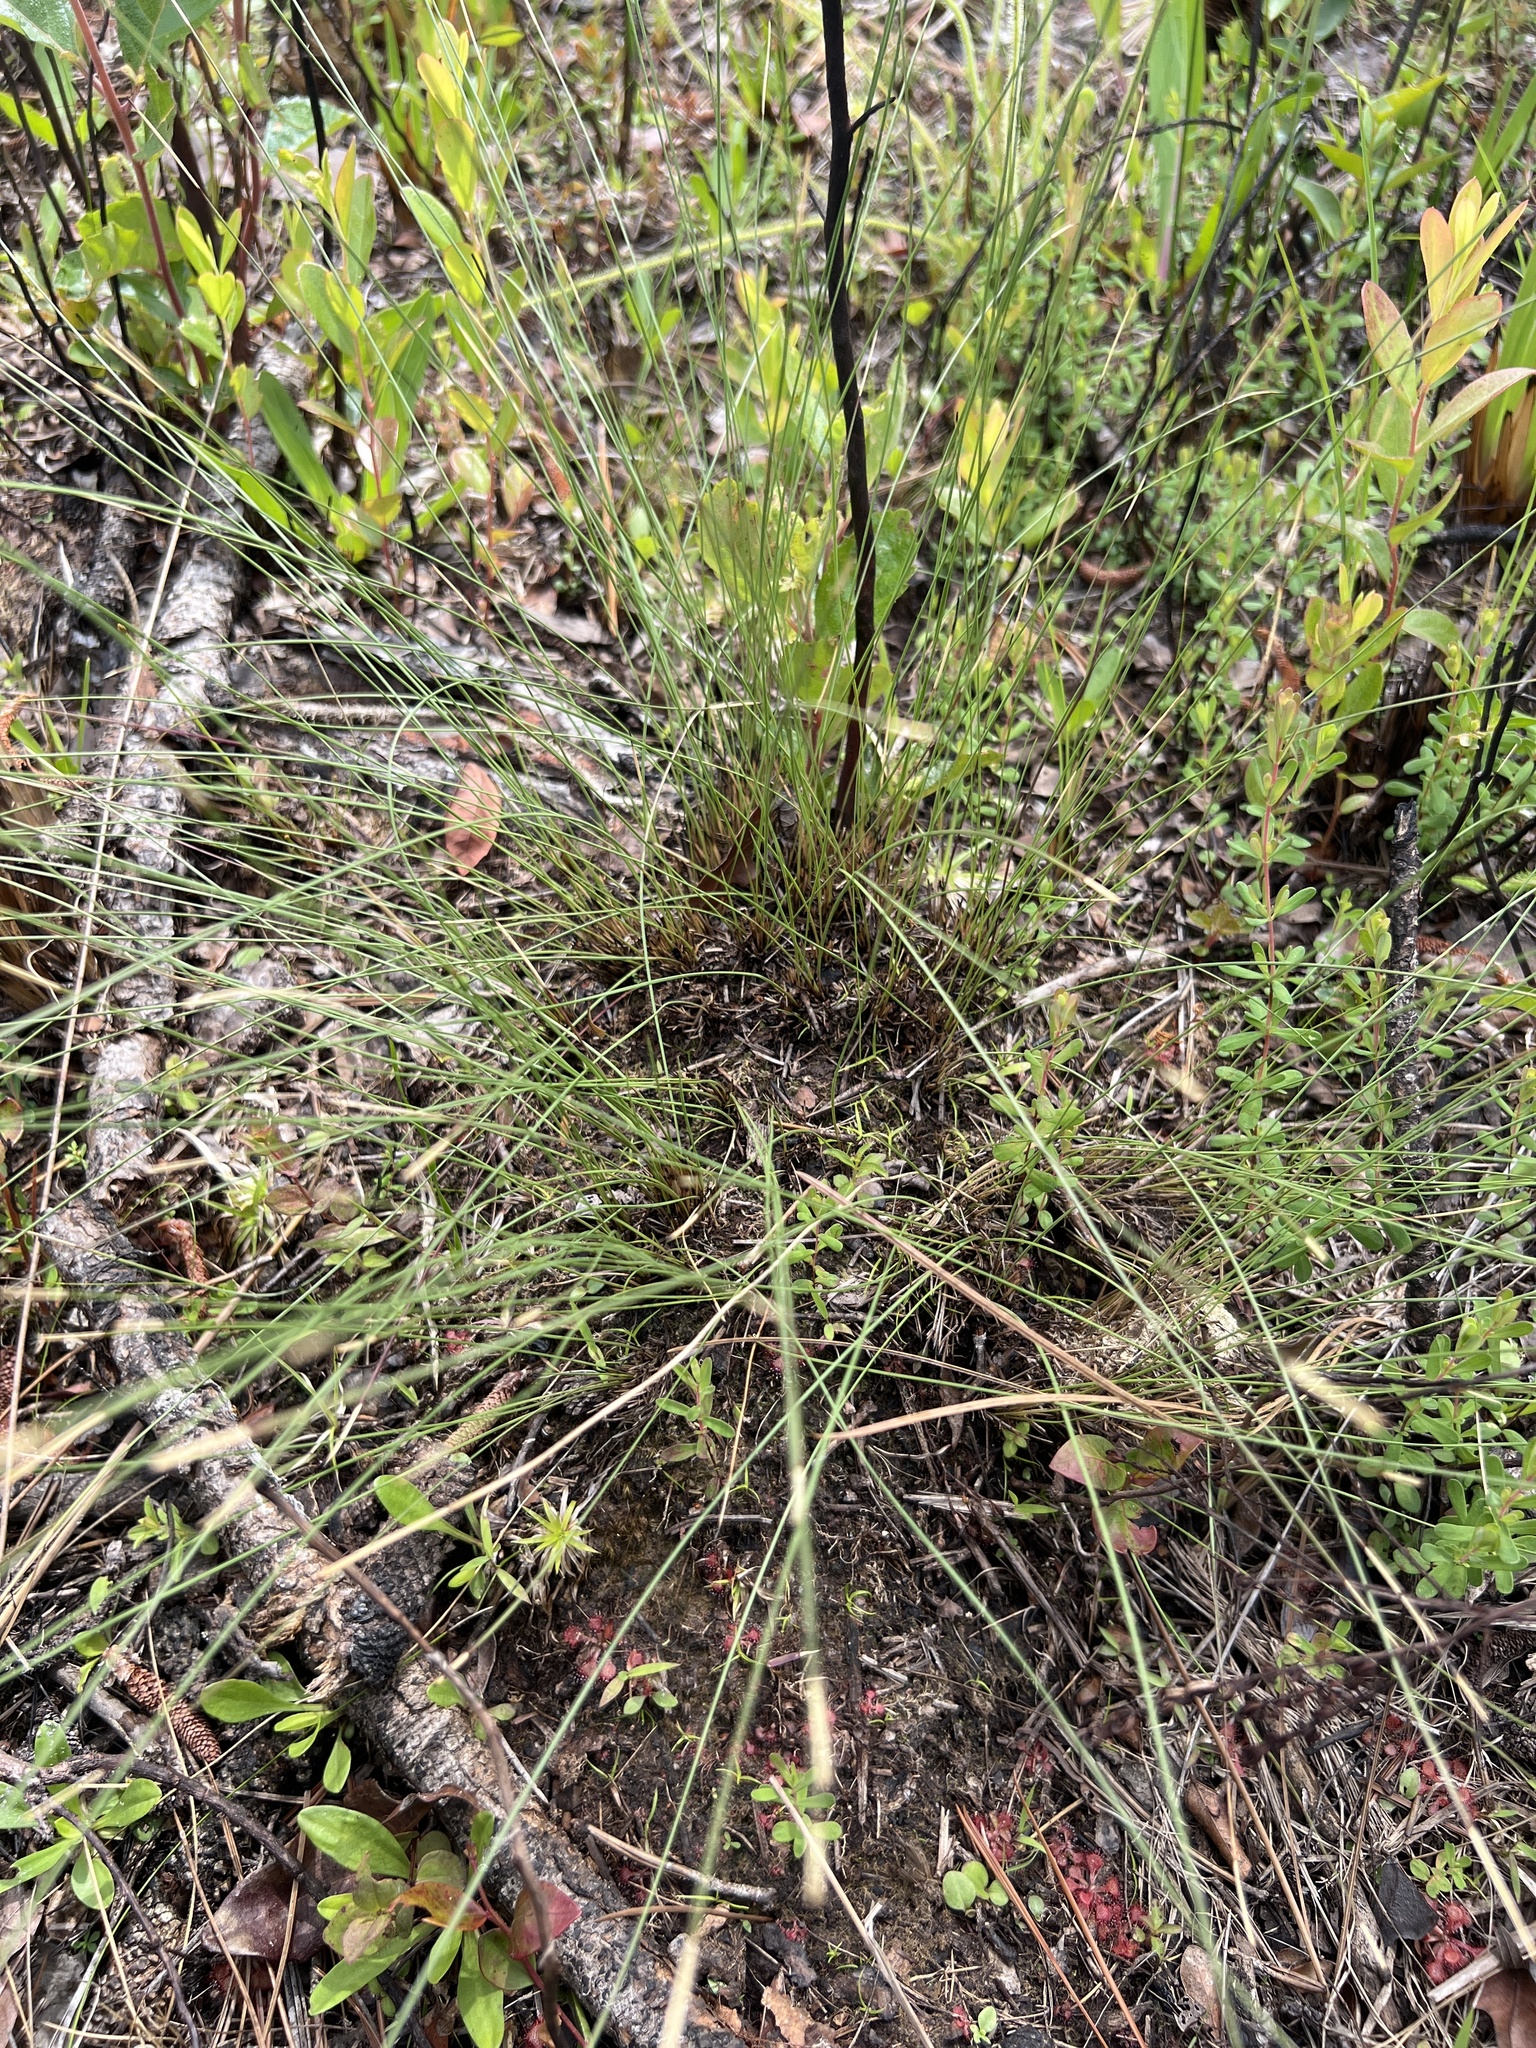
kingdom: Plantae
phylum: Tracheophyta
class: Liliopsida
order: Poales
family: Poaceae
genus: Aristida
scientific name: Aristida beyrichiana
